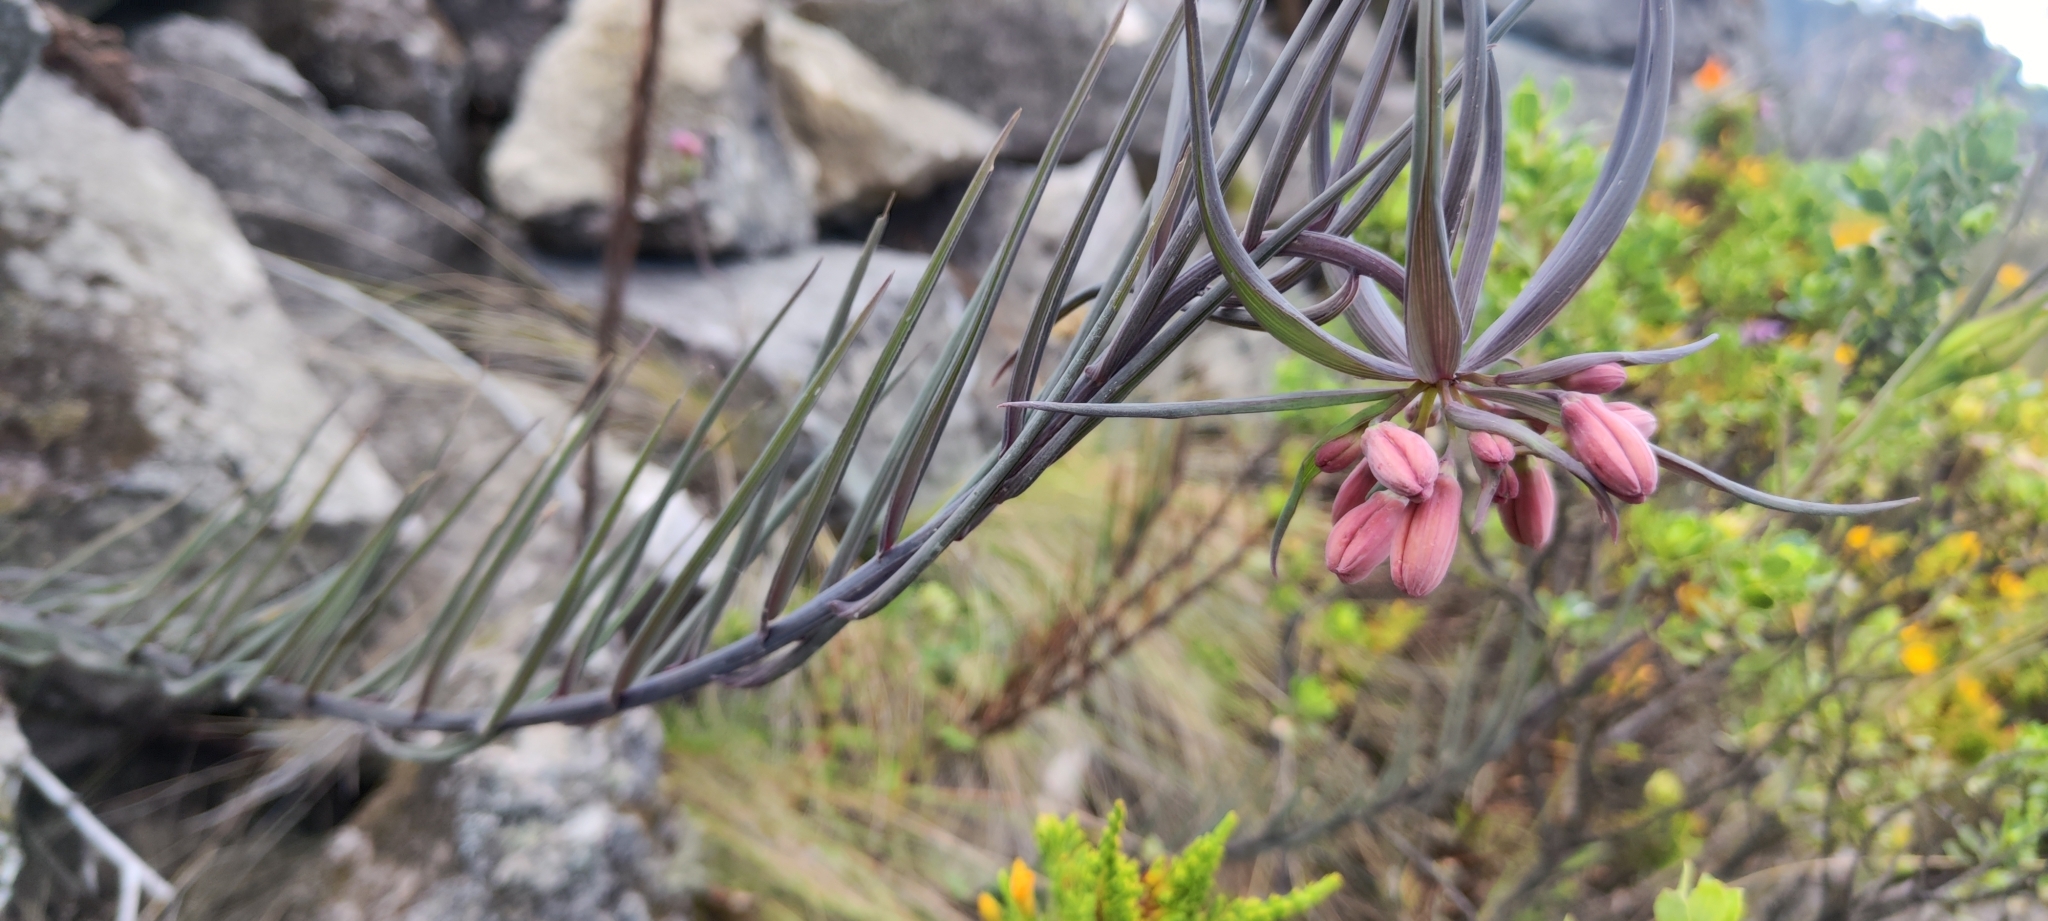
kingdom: Plantae
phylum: Tracheophyta
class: Liliopsida
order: Liliales
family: Alstroemeriaceae
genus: Bomarea
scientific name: Bomarea porrecta
